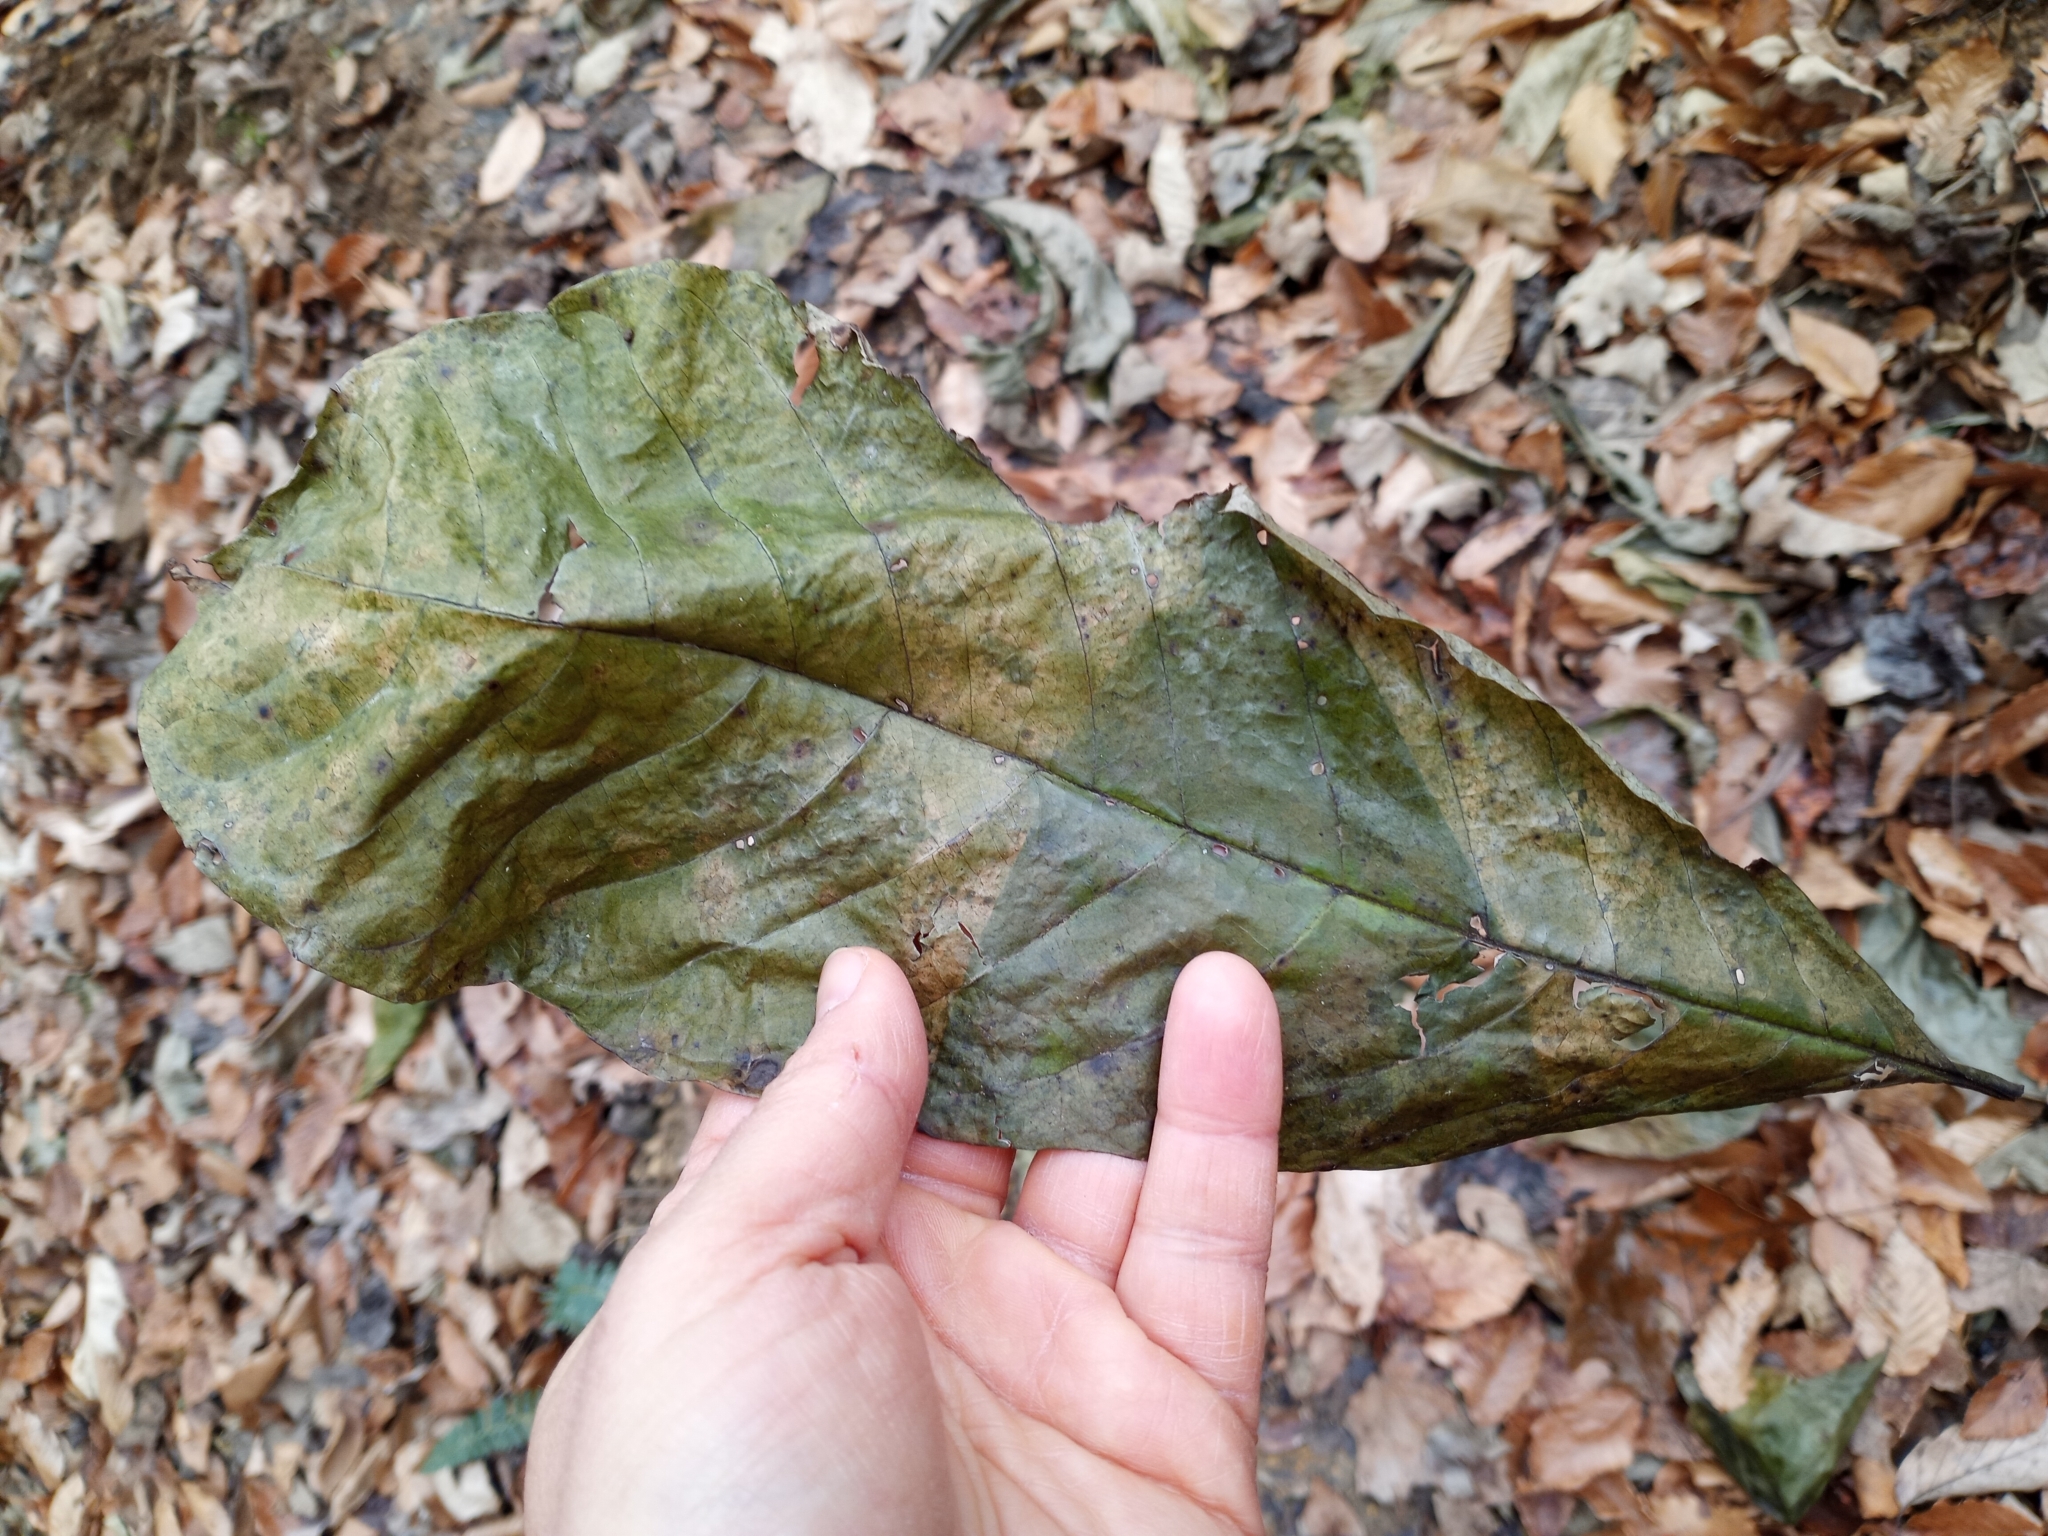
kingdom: Plantae
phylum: Tracheophyta
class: Magnoliopsida
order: Magnoliales
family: Annonaceae
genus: Asimina
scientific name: Asimina triloba
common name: Dog-banana
